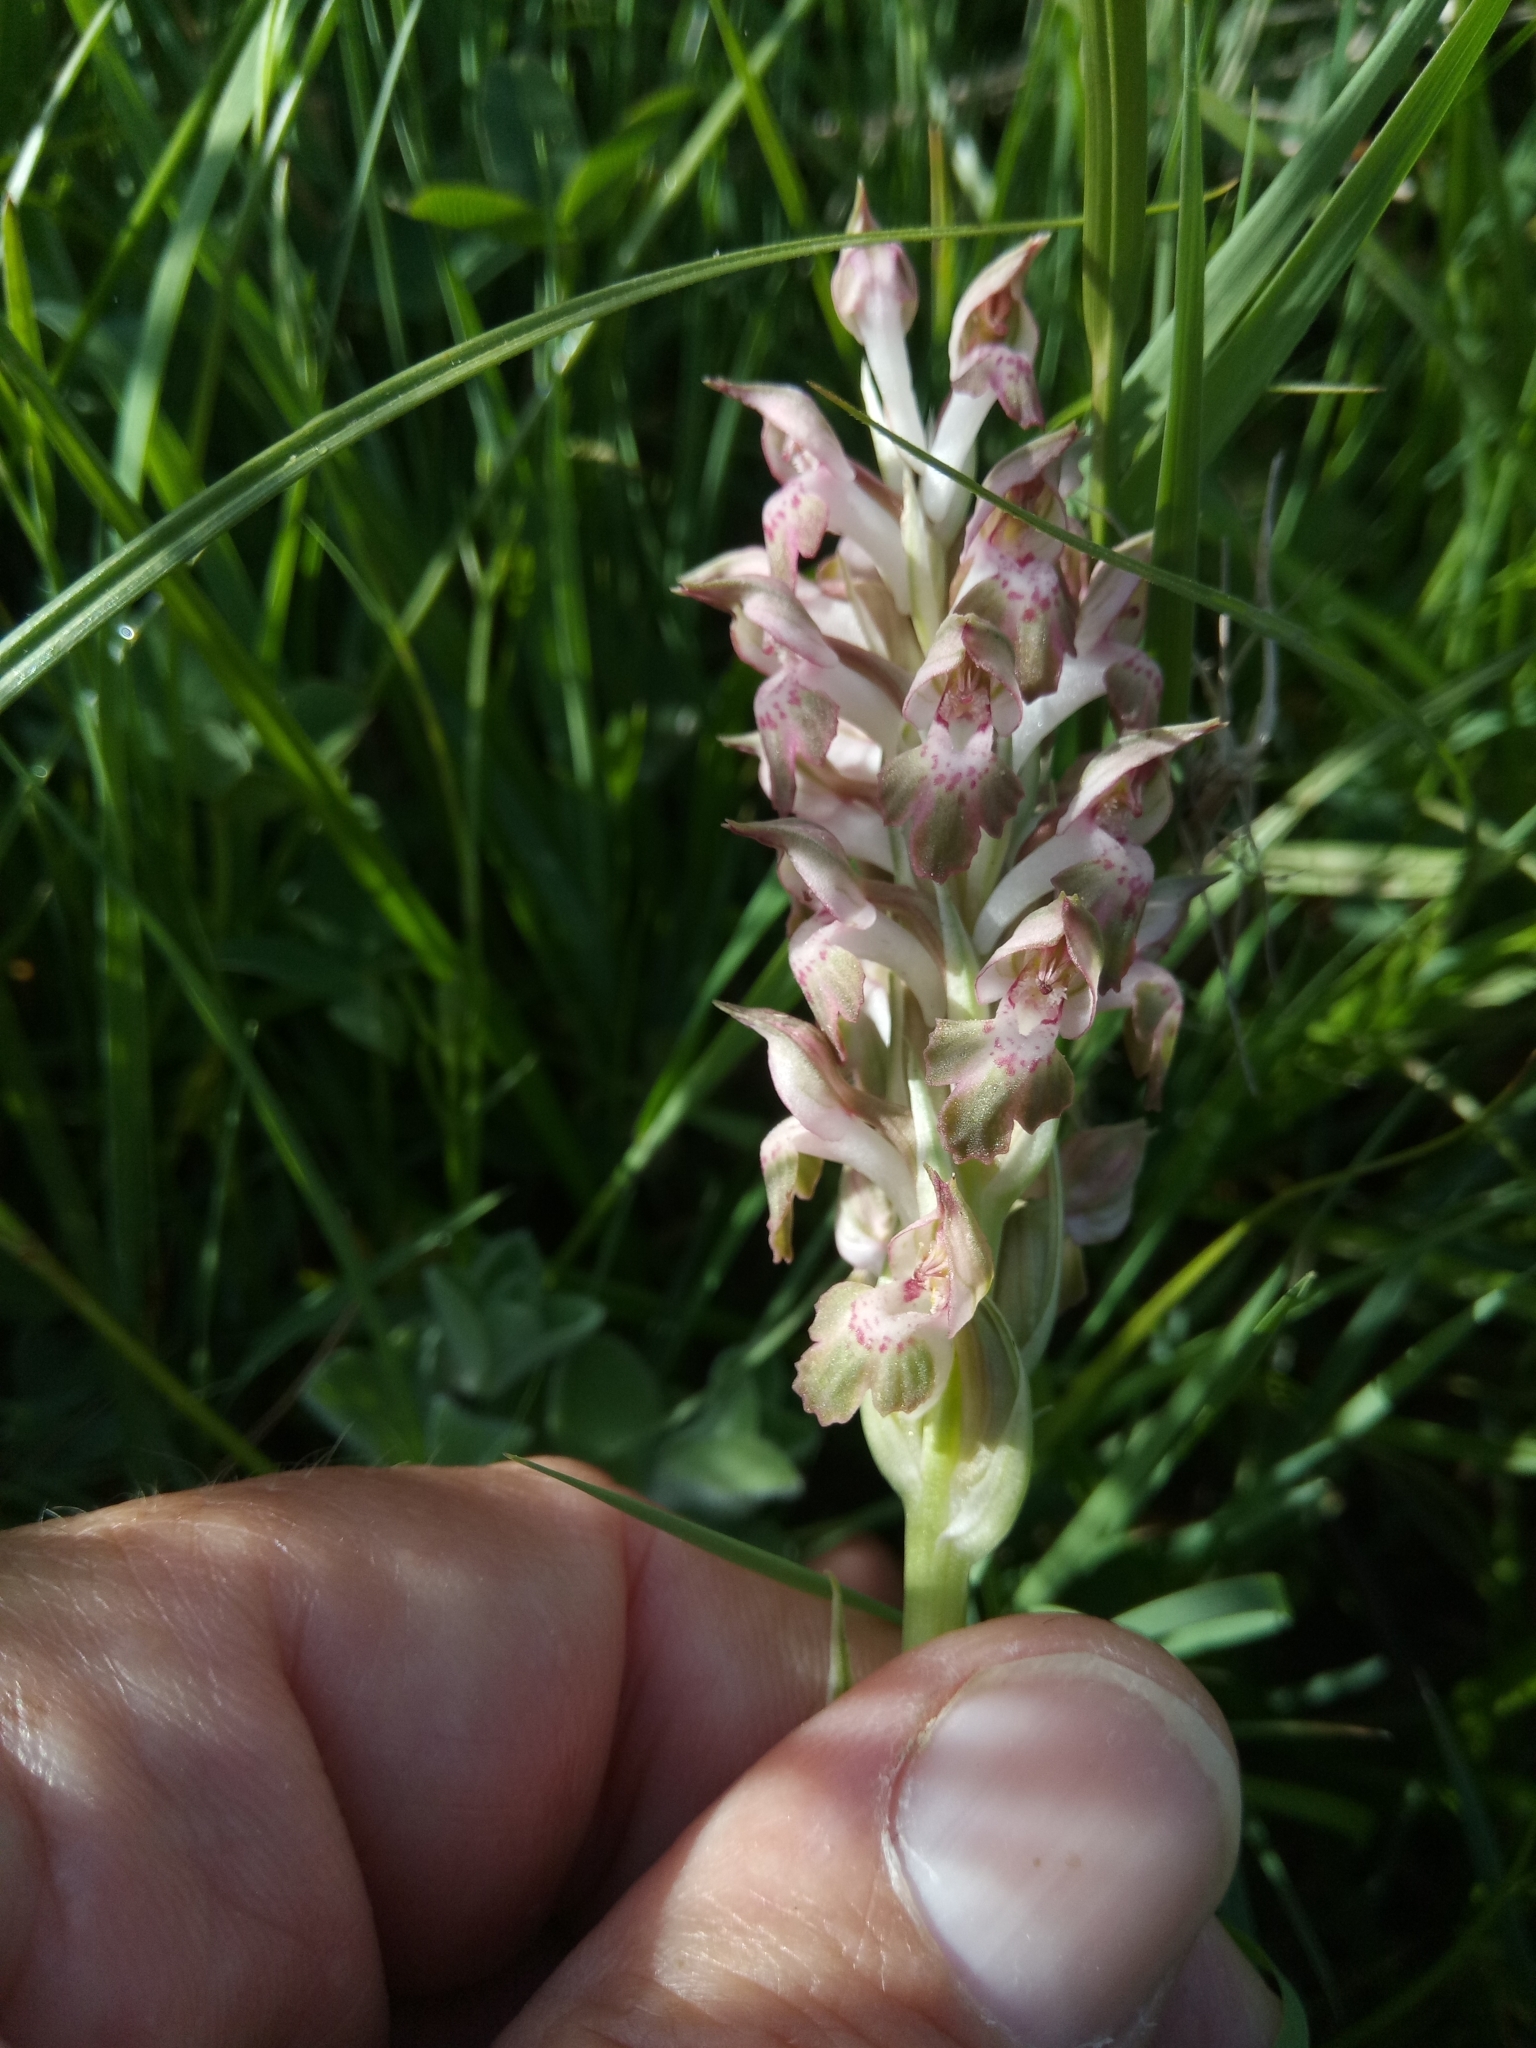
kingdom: Plantae
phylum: Tracheophyta
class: Liliopsida
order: Asparagales
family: Orchidaceae
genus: Anacamptis
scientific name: Anacamptis coriophora
